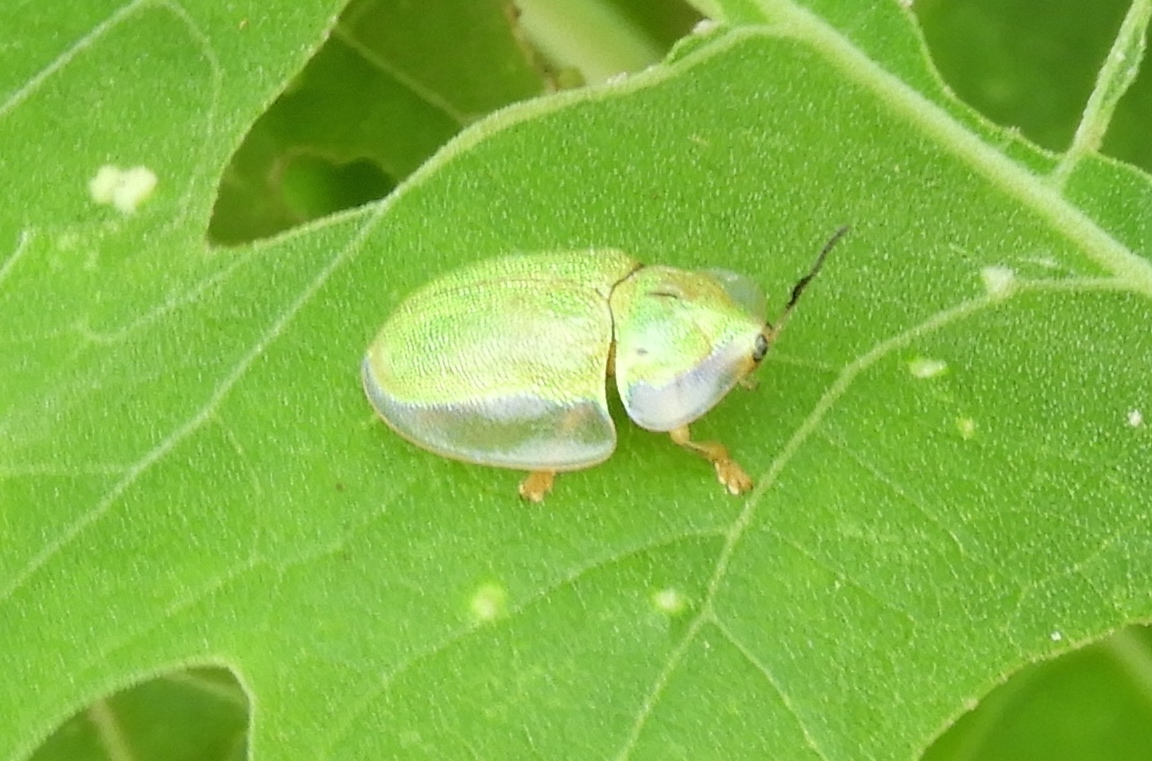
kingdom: Animalia
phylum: Arthropoda
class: Insecta
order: Coleoptera
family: Chrysomelidae
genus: Physonota
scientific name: Physonota arizonae
